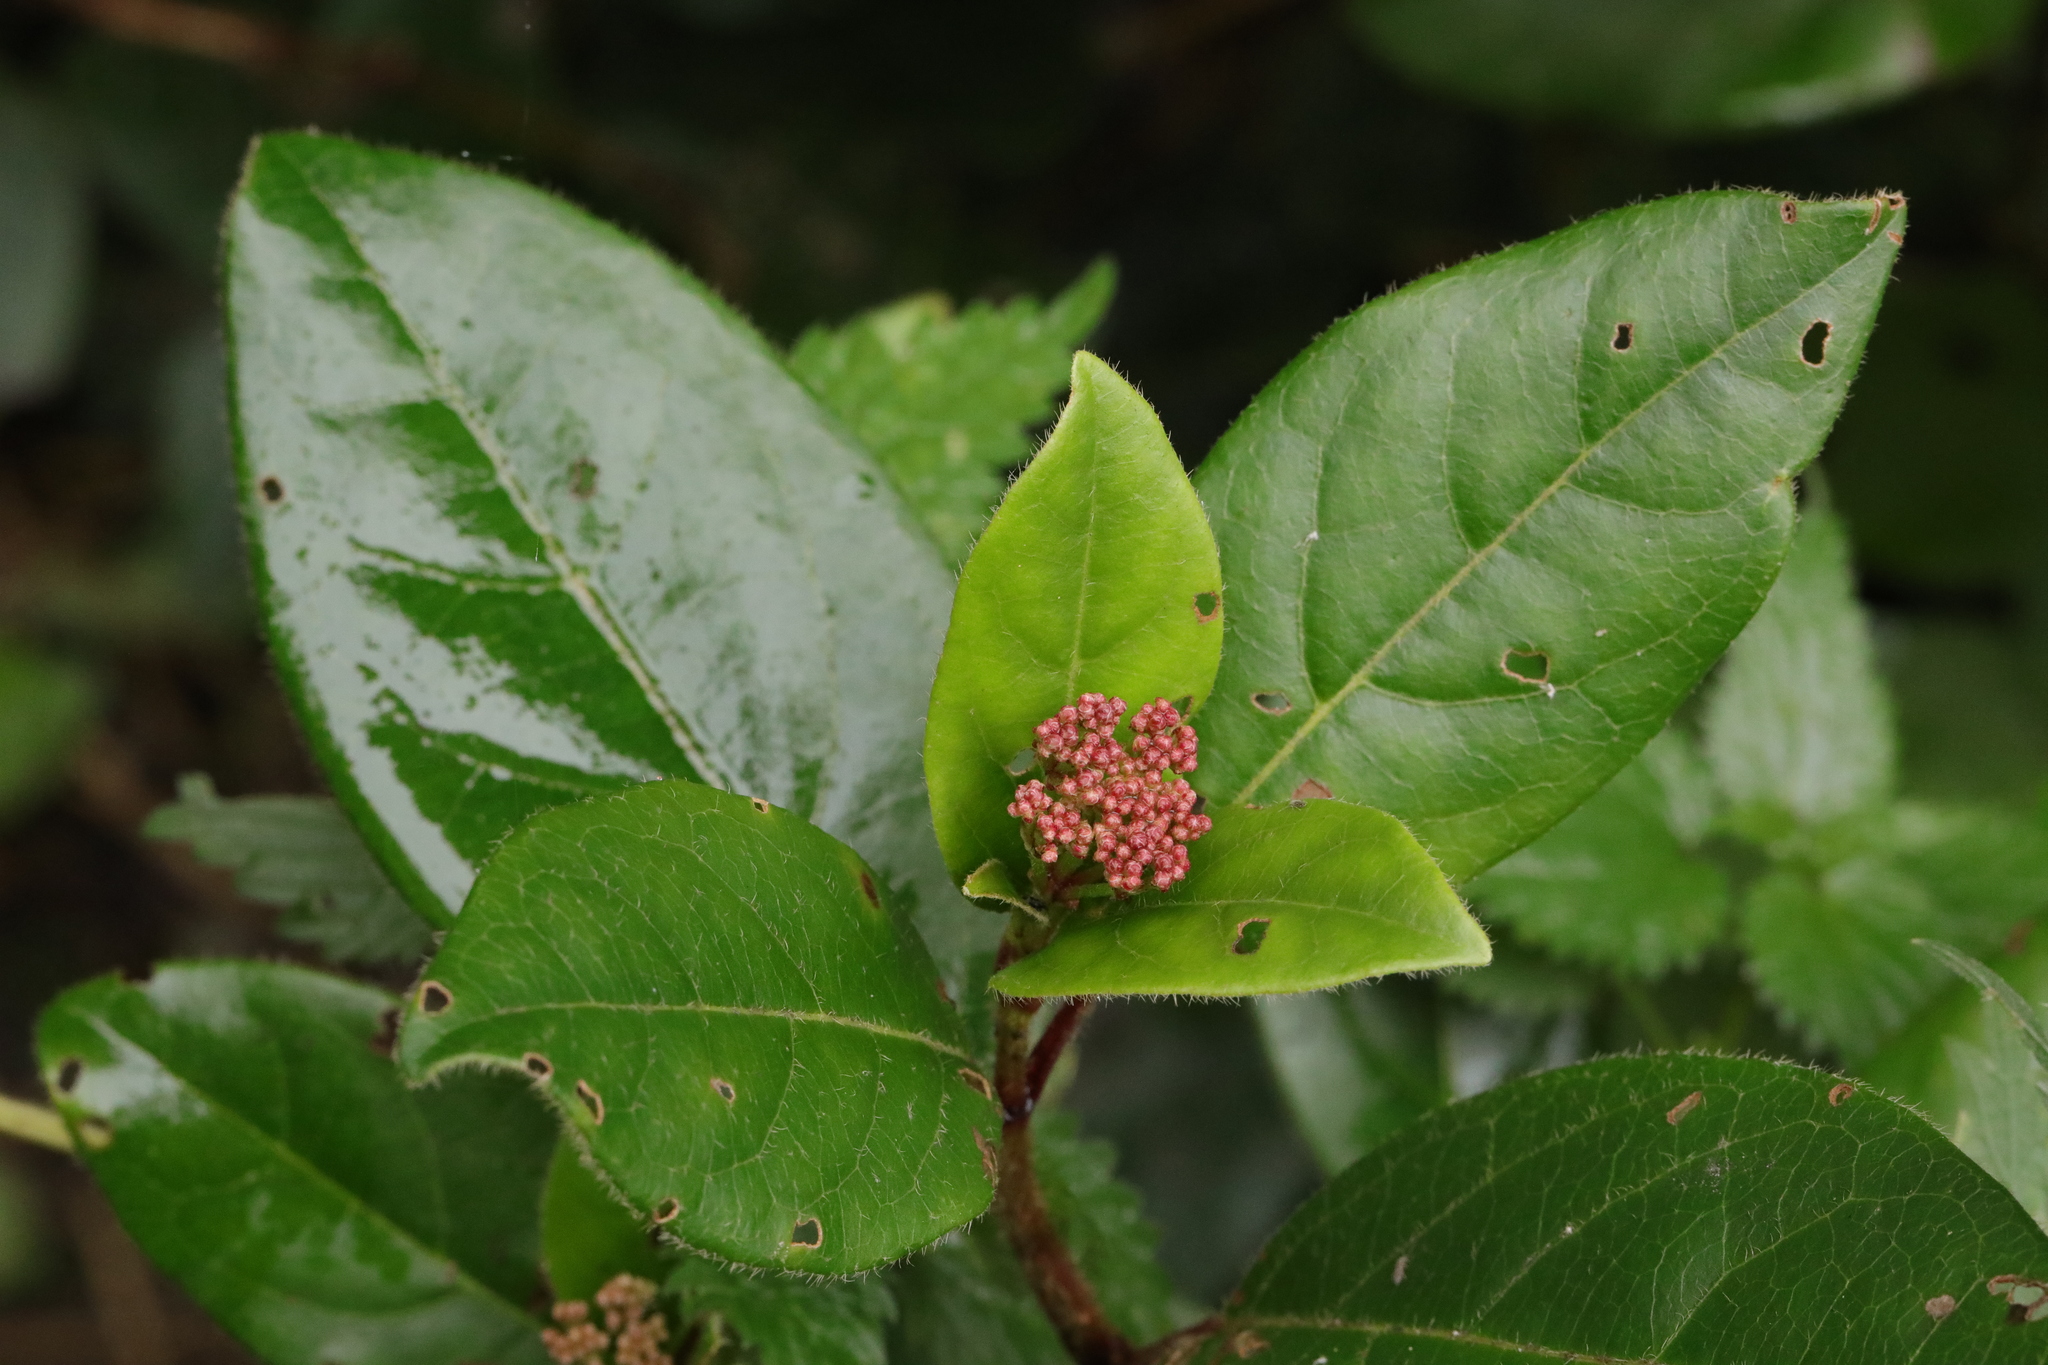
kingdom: Plantae
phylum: Tracheophyta
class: Magnoliopsida
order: Dipsacales
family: Viburnaceae
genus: Viburnum
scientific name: Viburnum tinus
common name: Laurustinus
